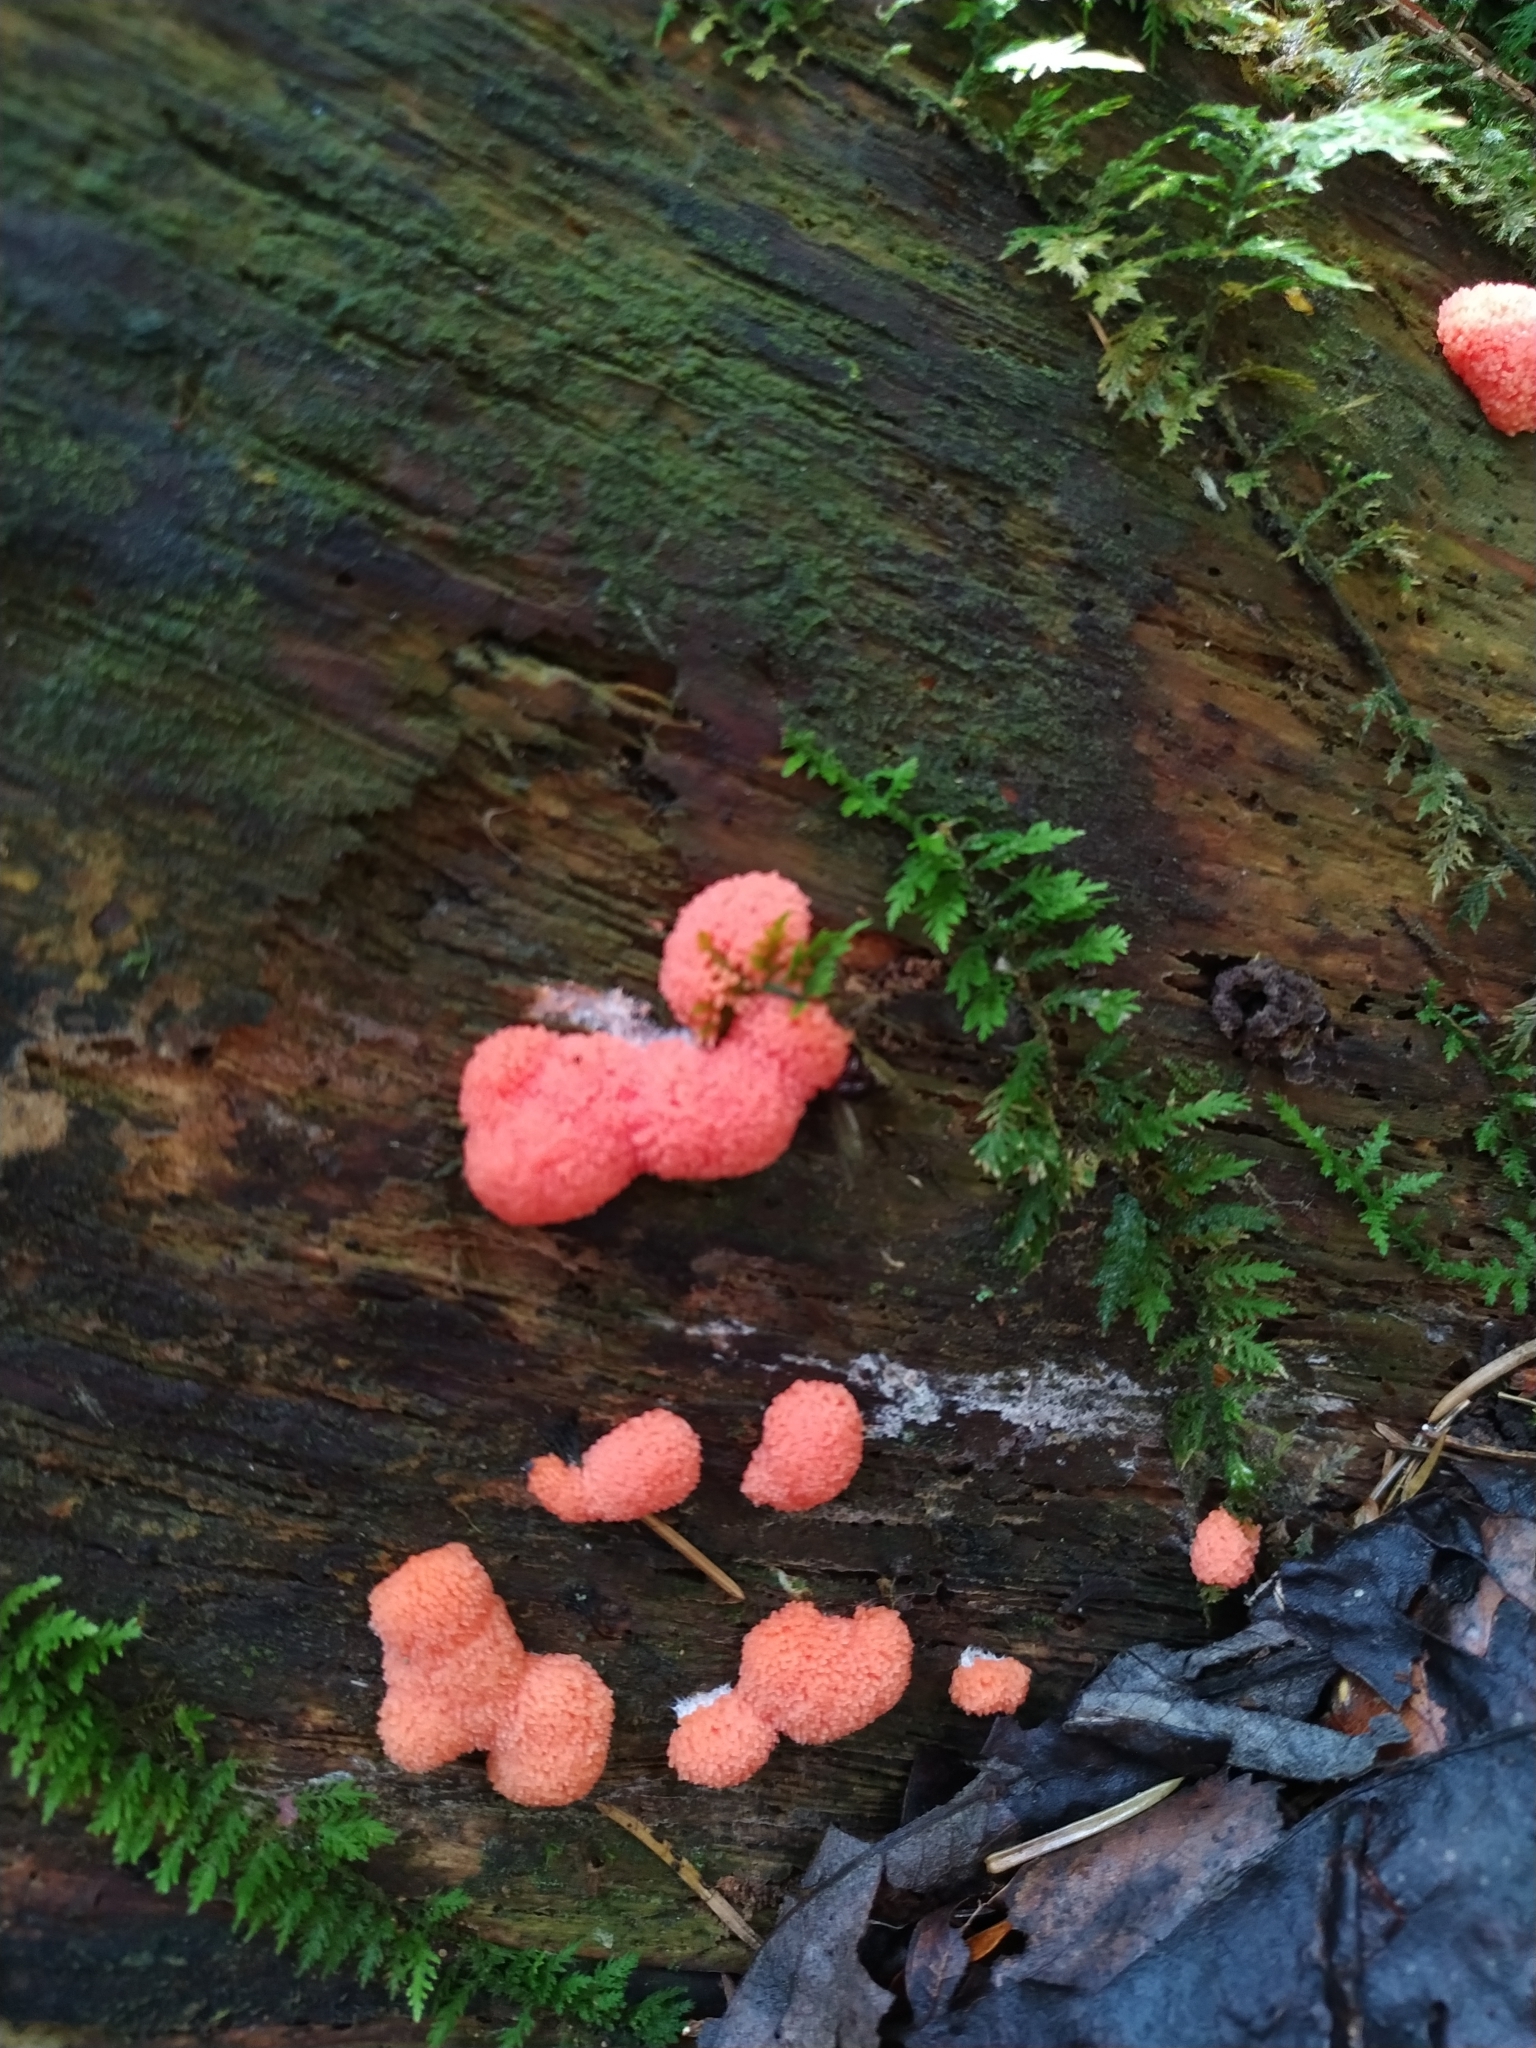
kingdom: Protozoa
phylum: Mycetozoa
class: Myxomycetes
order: Cribrariales
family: Tubiferaceae
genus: Tubifera
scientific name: Tubifera ferruginosa
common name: Red raspberry slime mold
